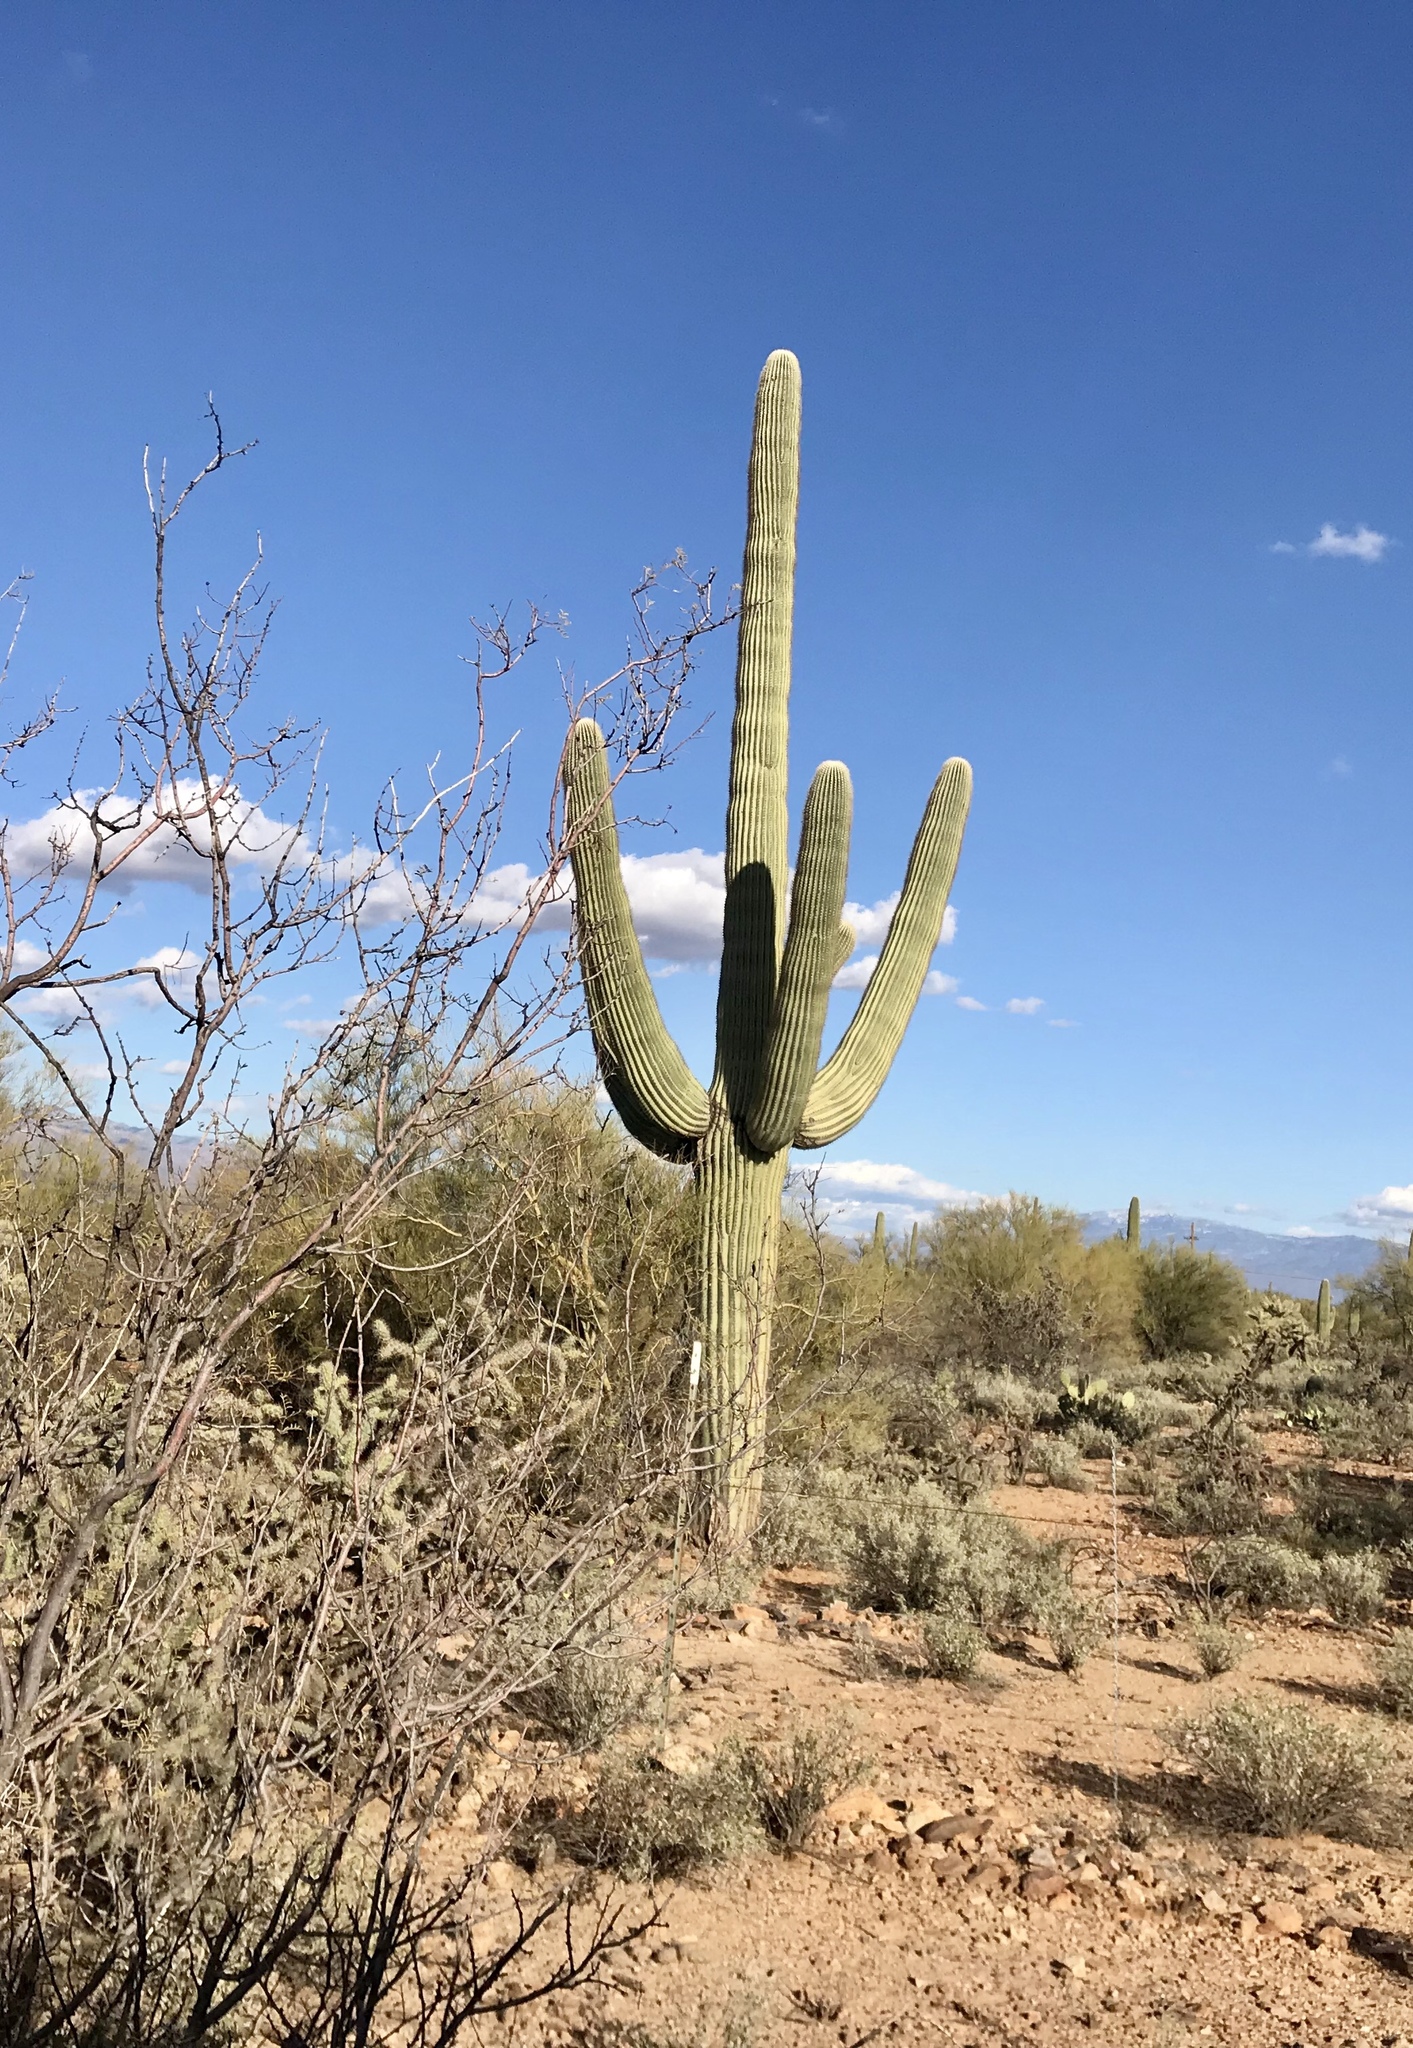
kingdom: Plantae
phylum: Tracheophyta
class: Magnoliopsida
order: Caryophyllales
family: Cactaceae
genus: Carnegiea
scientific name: Carnegiea gigantea
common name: Saguaro
